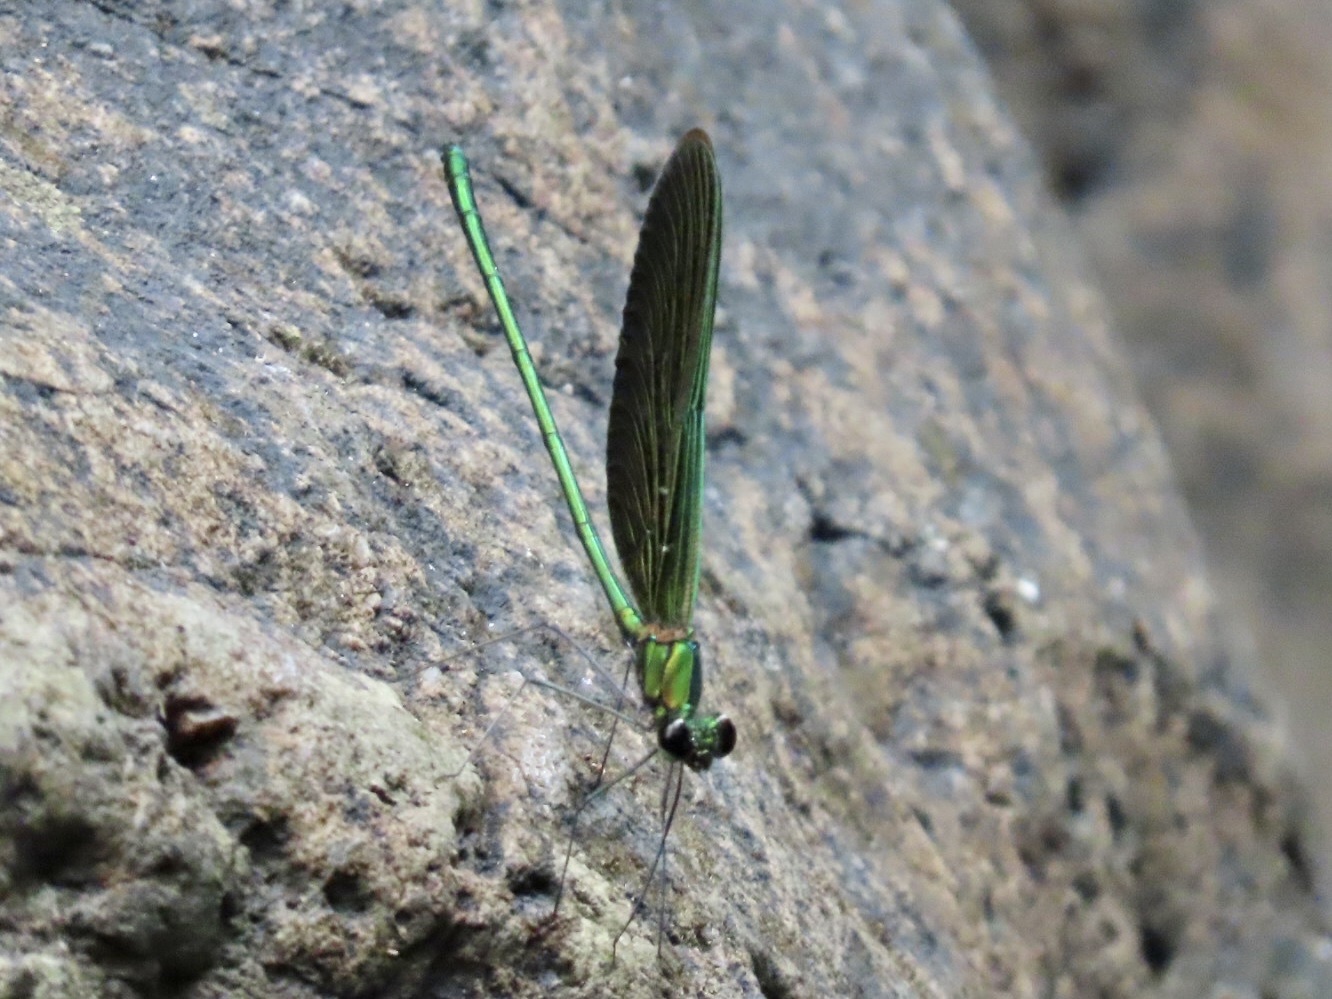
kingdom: Animalia
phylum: Arthropoda
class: Insecta
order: Odonata
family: Calopterygidae
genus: Neurobasis
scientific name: Neurobasis chinensis
